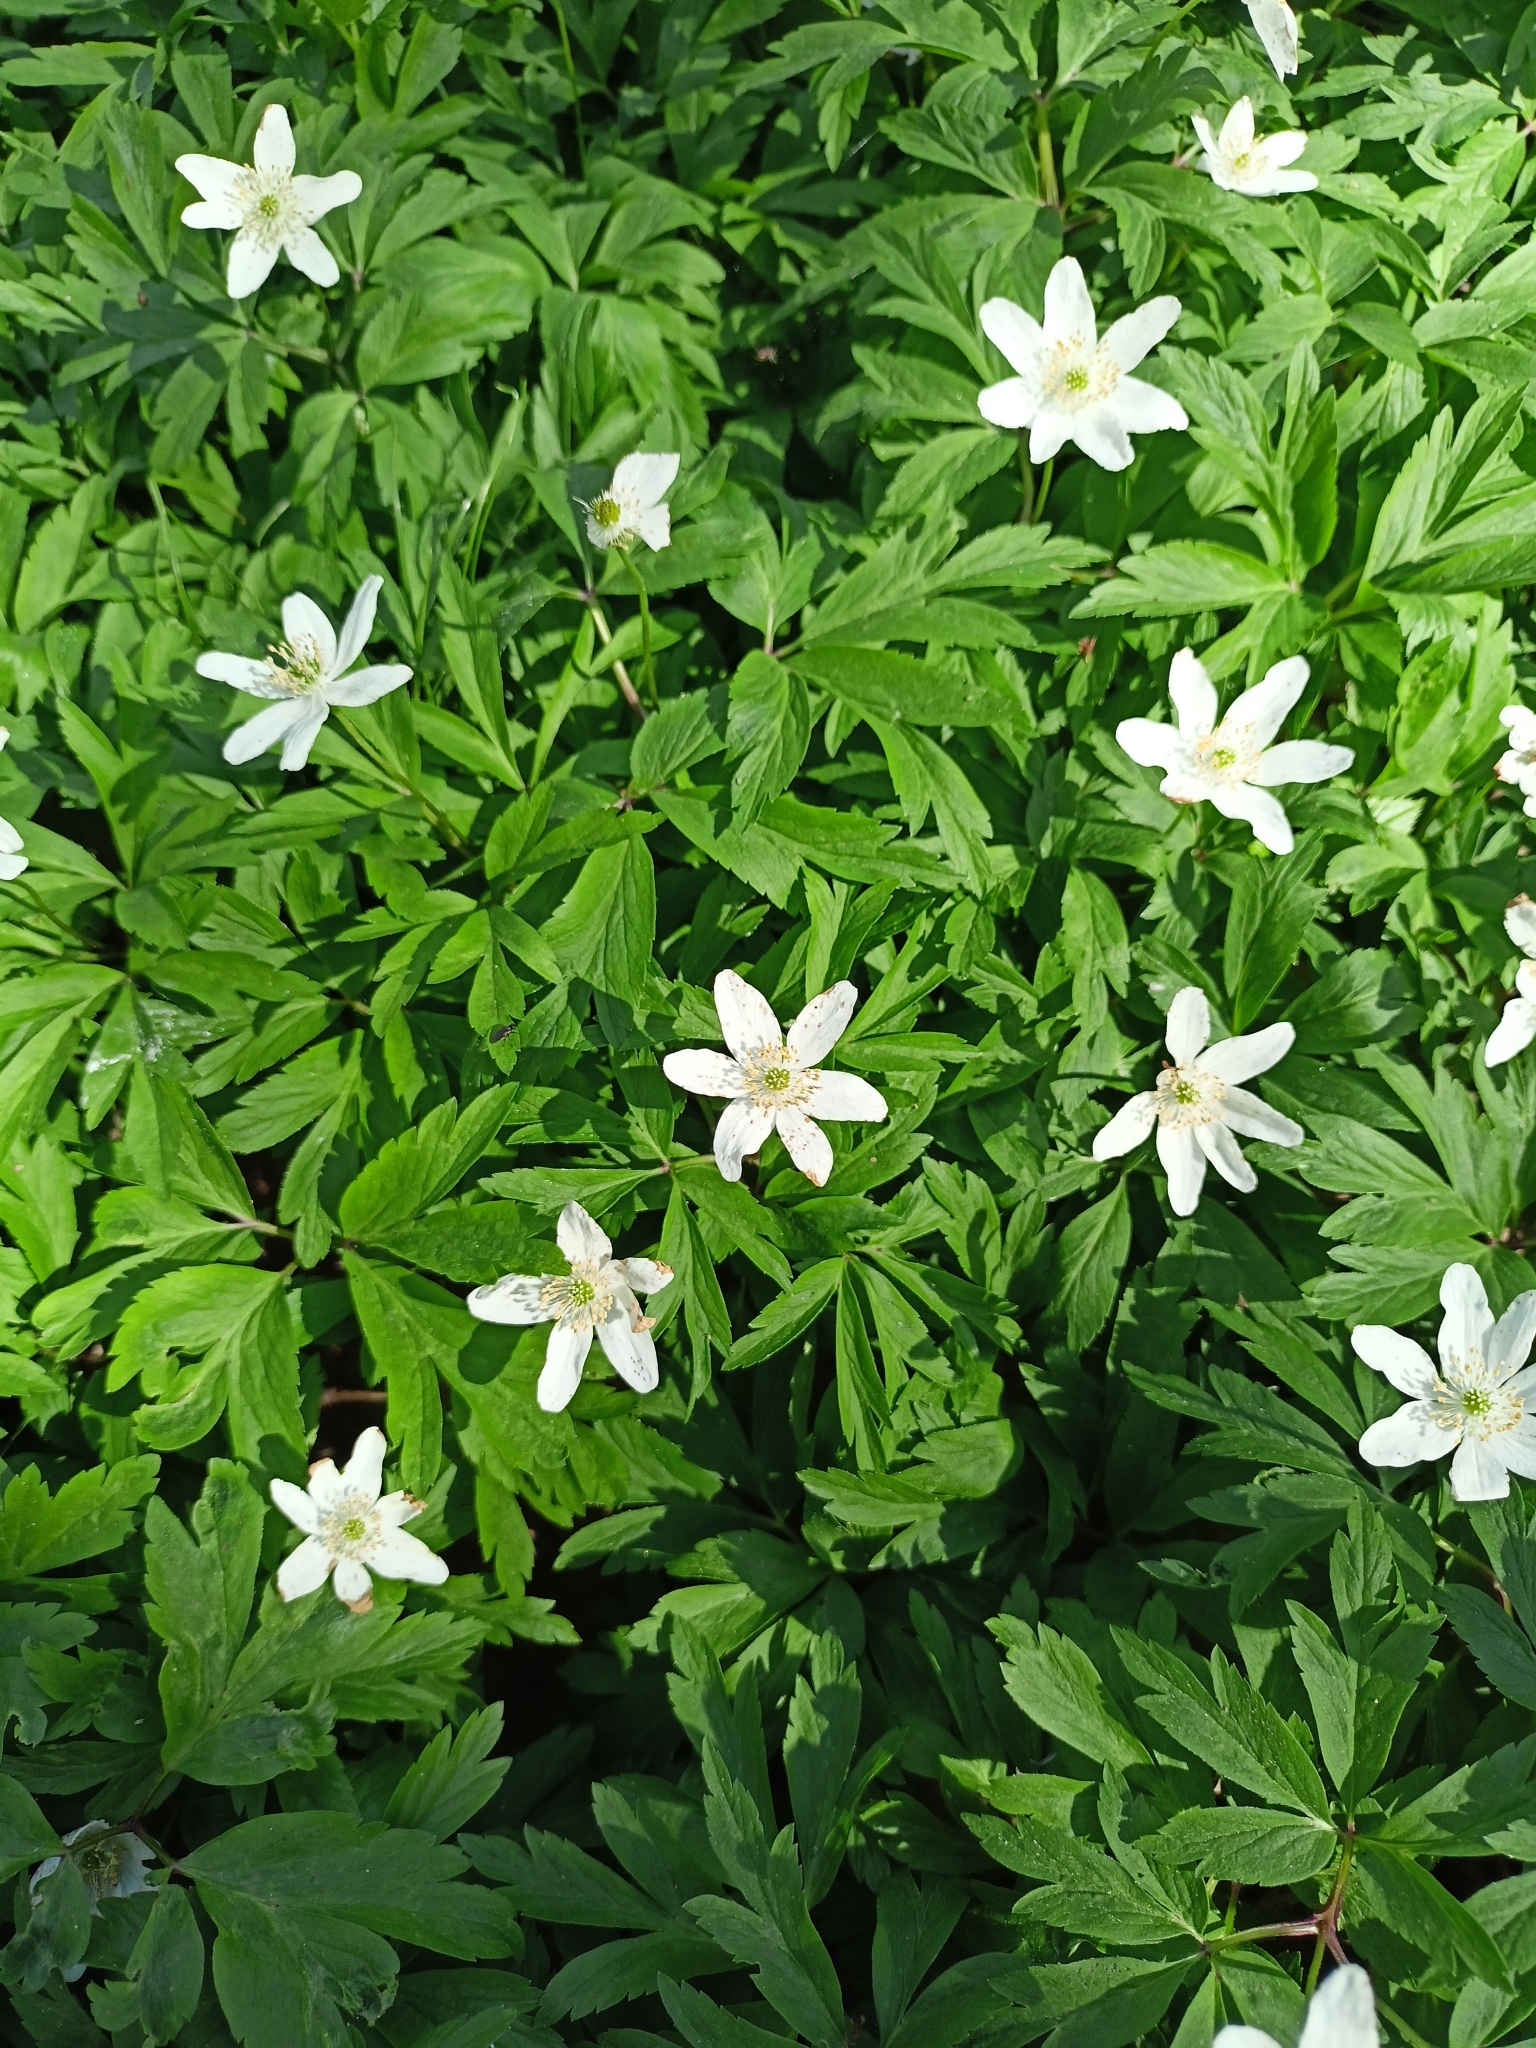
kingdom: Plantae
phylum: Tracheophyta
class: Magnoliopsida
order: Ranunculales
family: Ranunculaceae
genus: Anemone
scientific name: Anemone nemorosa
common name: Wood anemone
